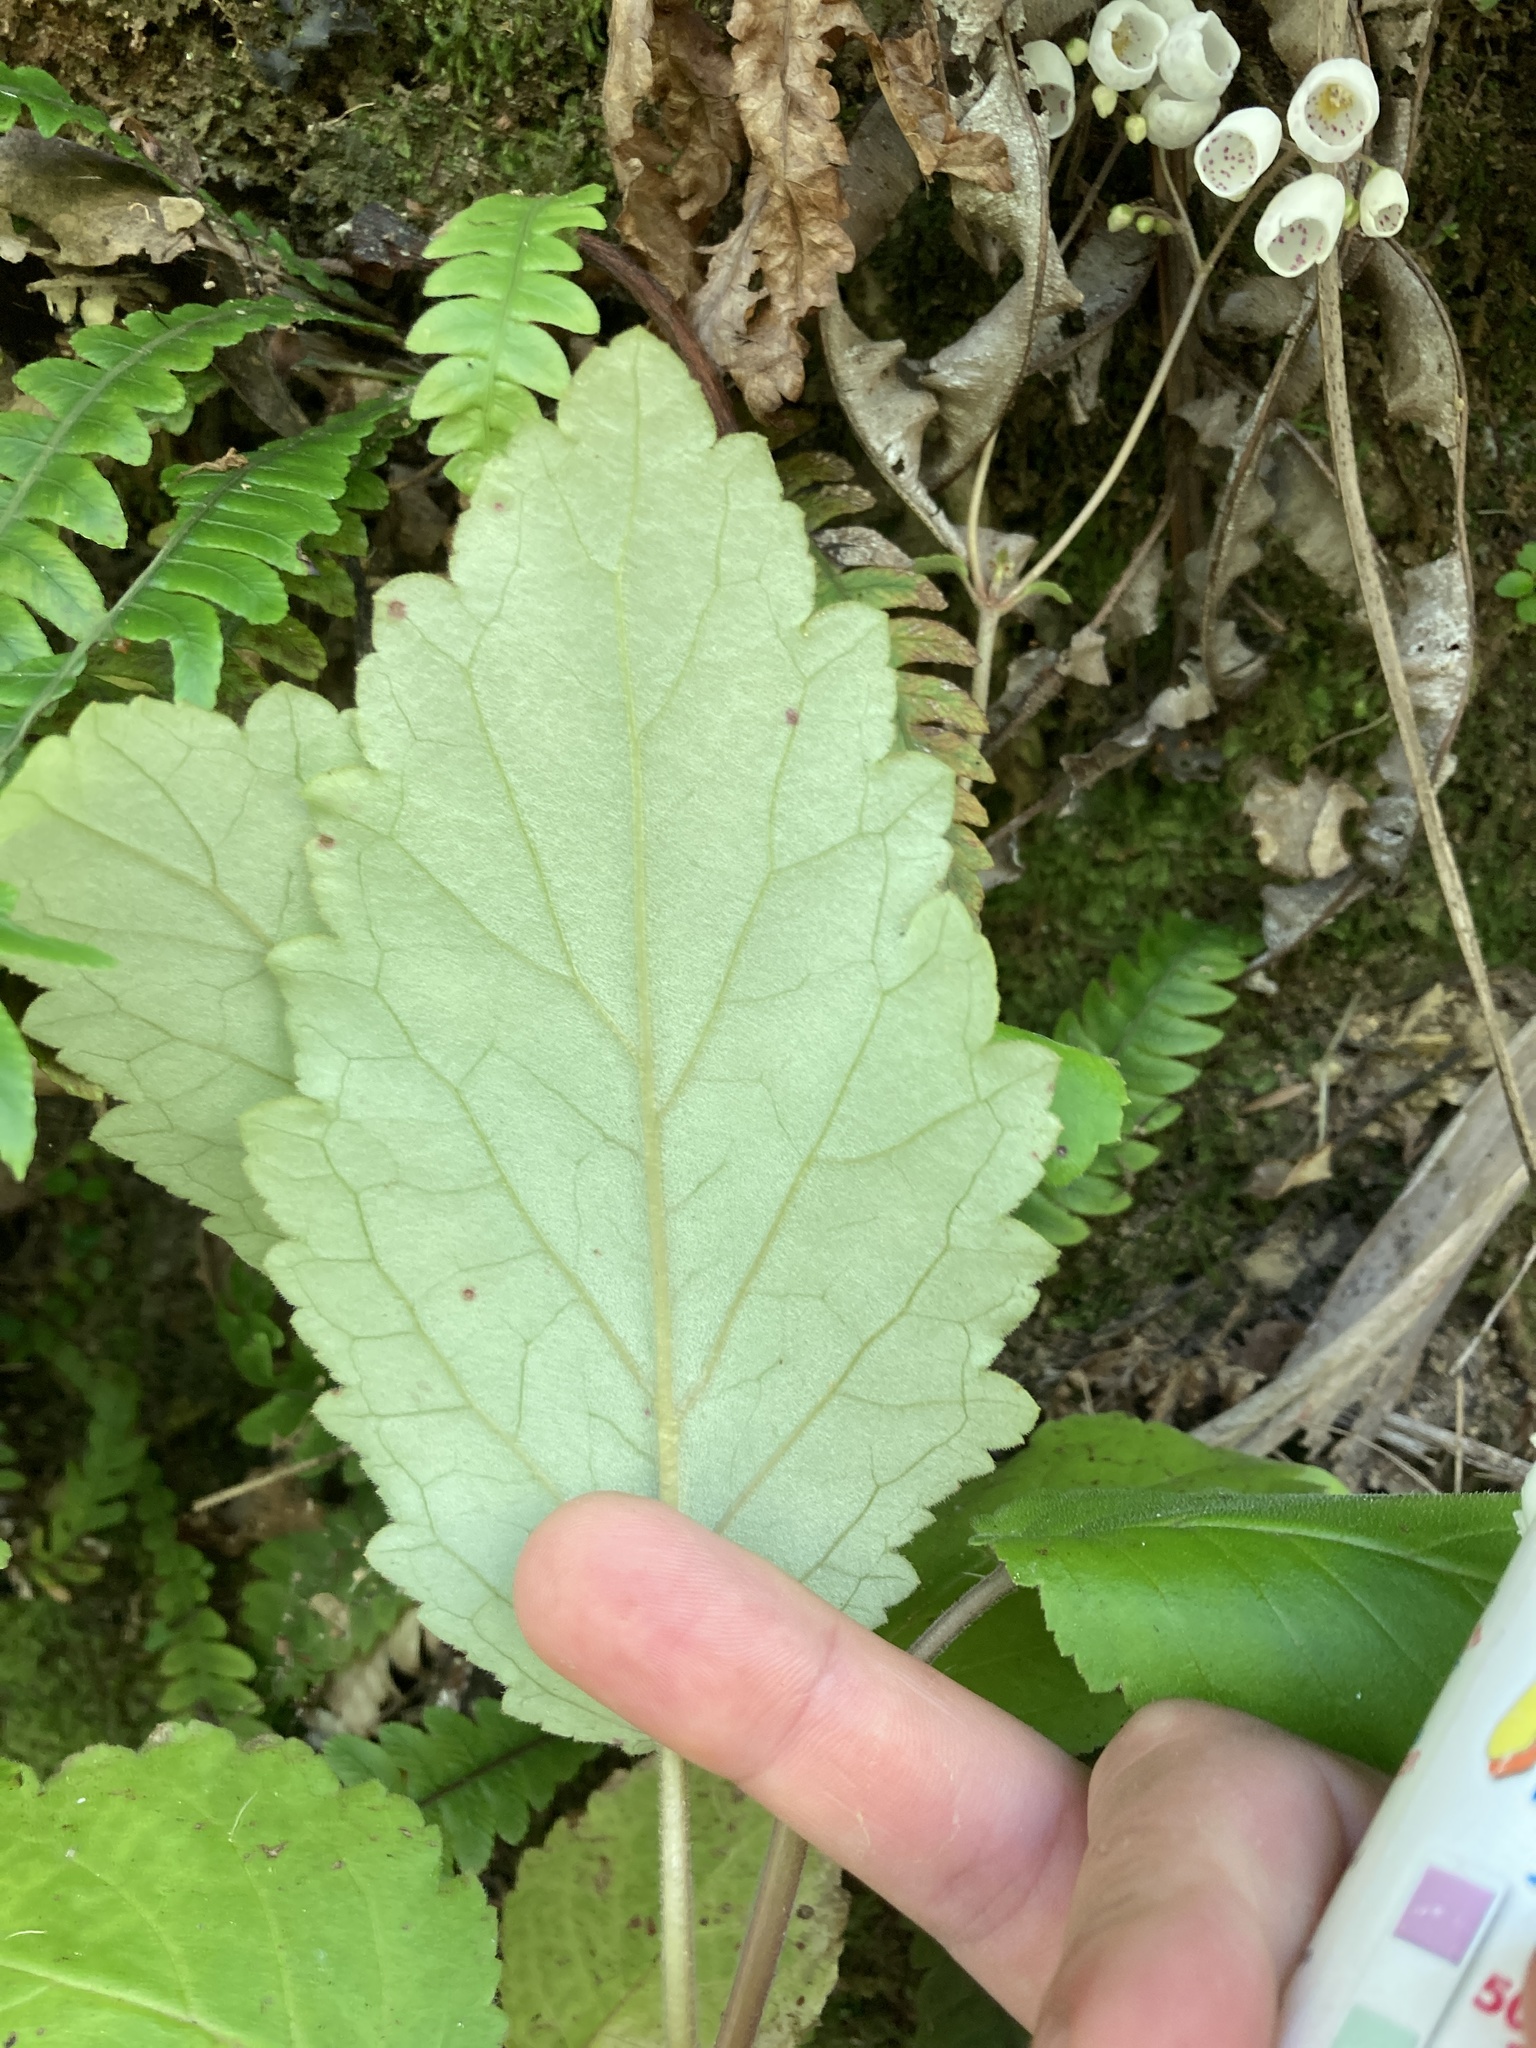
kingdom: Plantae
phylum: Tracheophyta
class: Magnoliopsida
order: Lamiales
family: Calceolariaceae
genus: Jovellana
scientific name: Jovellana sinclairii
